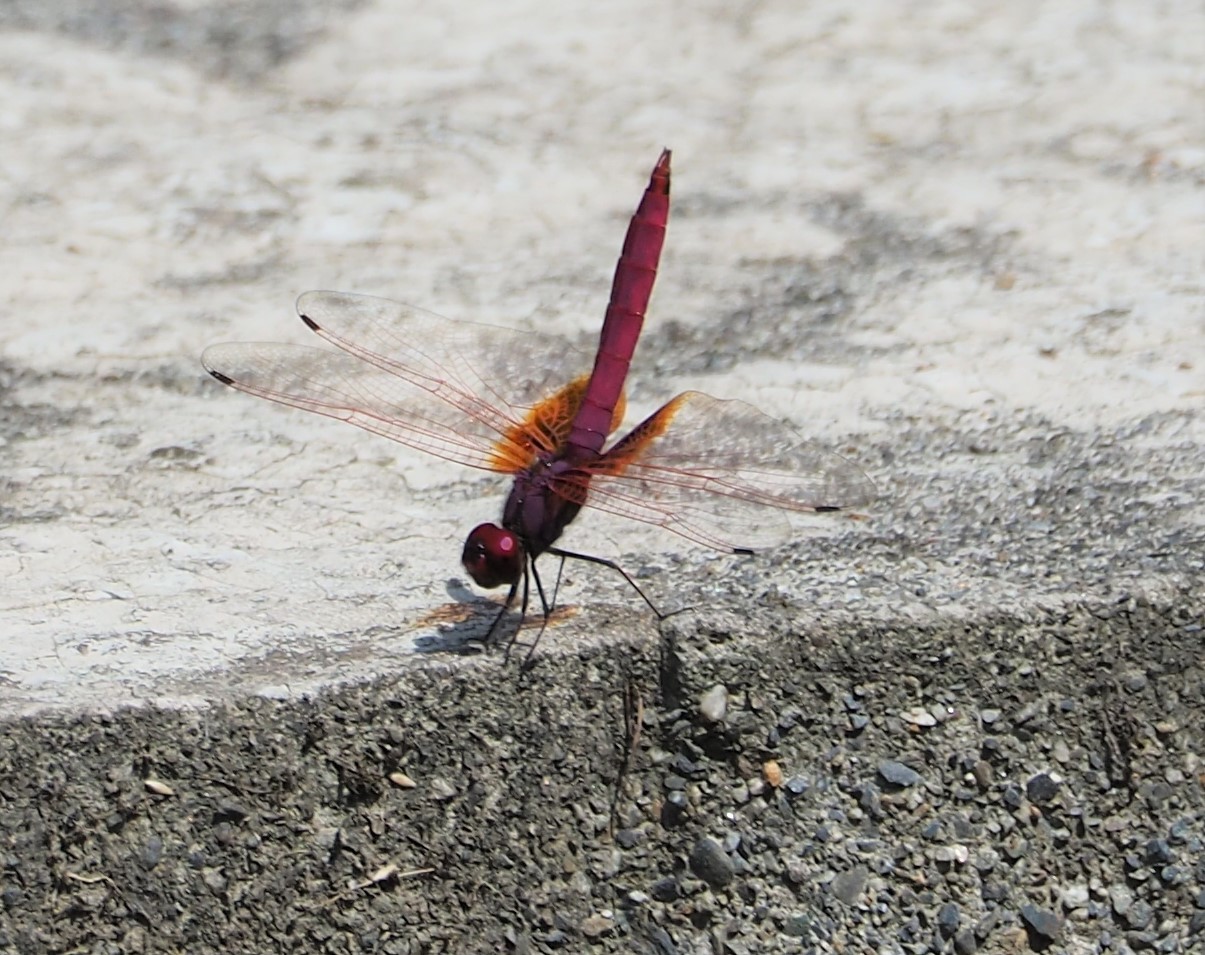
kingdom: Animalia
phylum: Arthropoda
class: Insecta
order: Odonata
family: Libellulidae
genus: Trithemis
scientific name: Trithemis aurora
